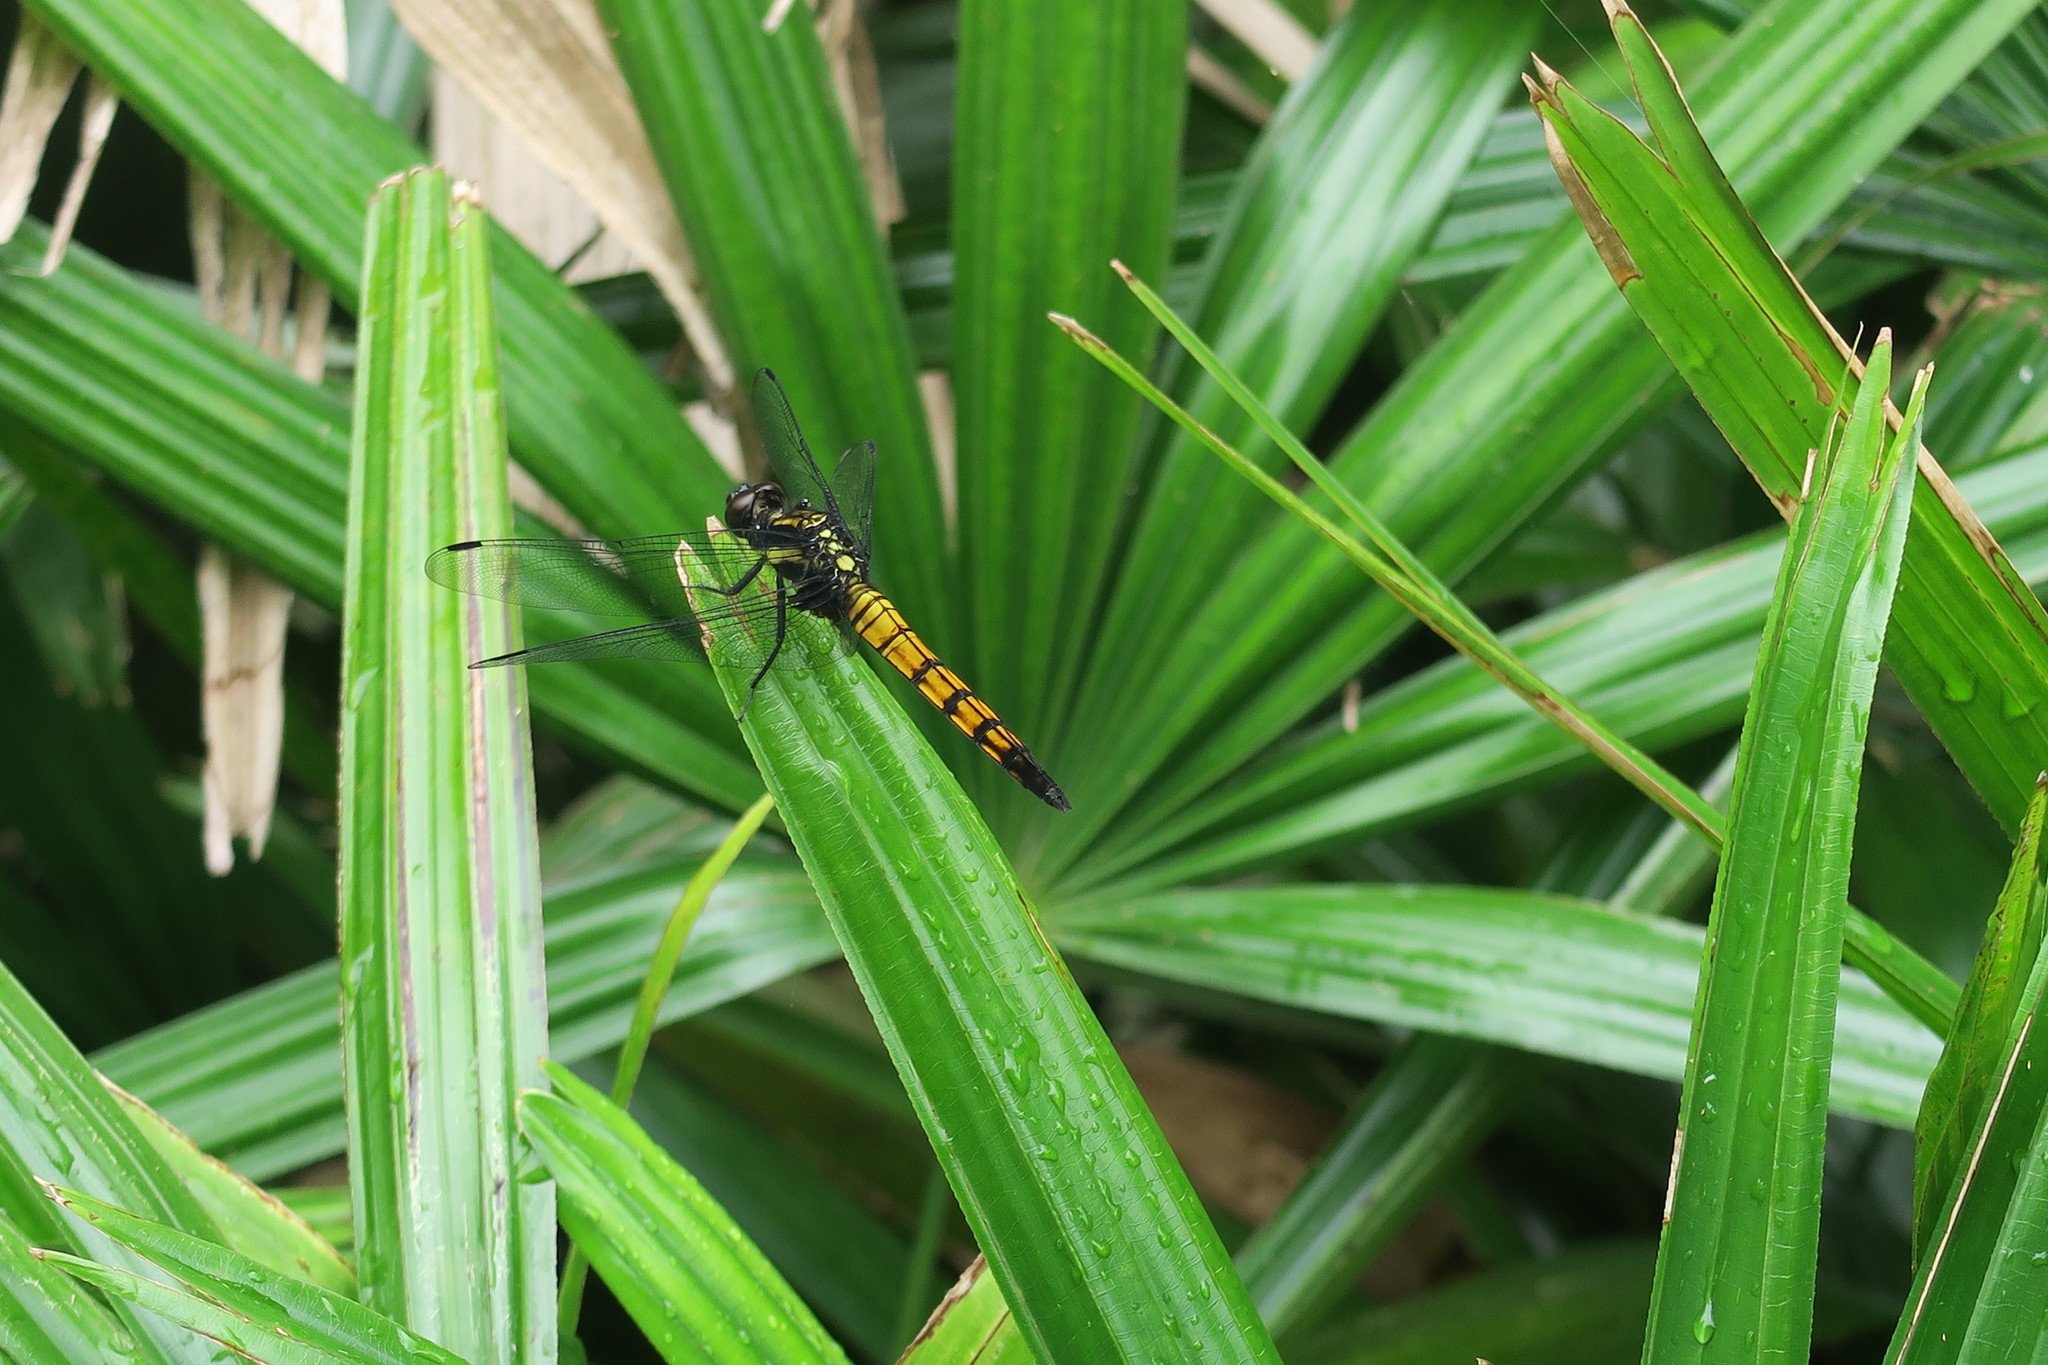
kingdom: Animalia
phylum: Arthropoda
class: Insecta
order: Odonata
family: Libellulidae
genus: Orthetrum
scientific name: Orthetrum melania
